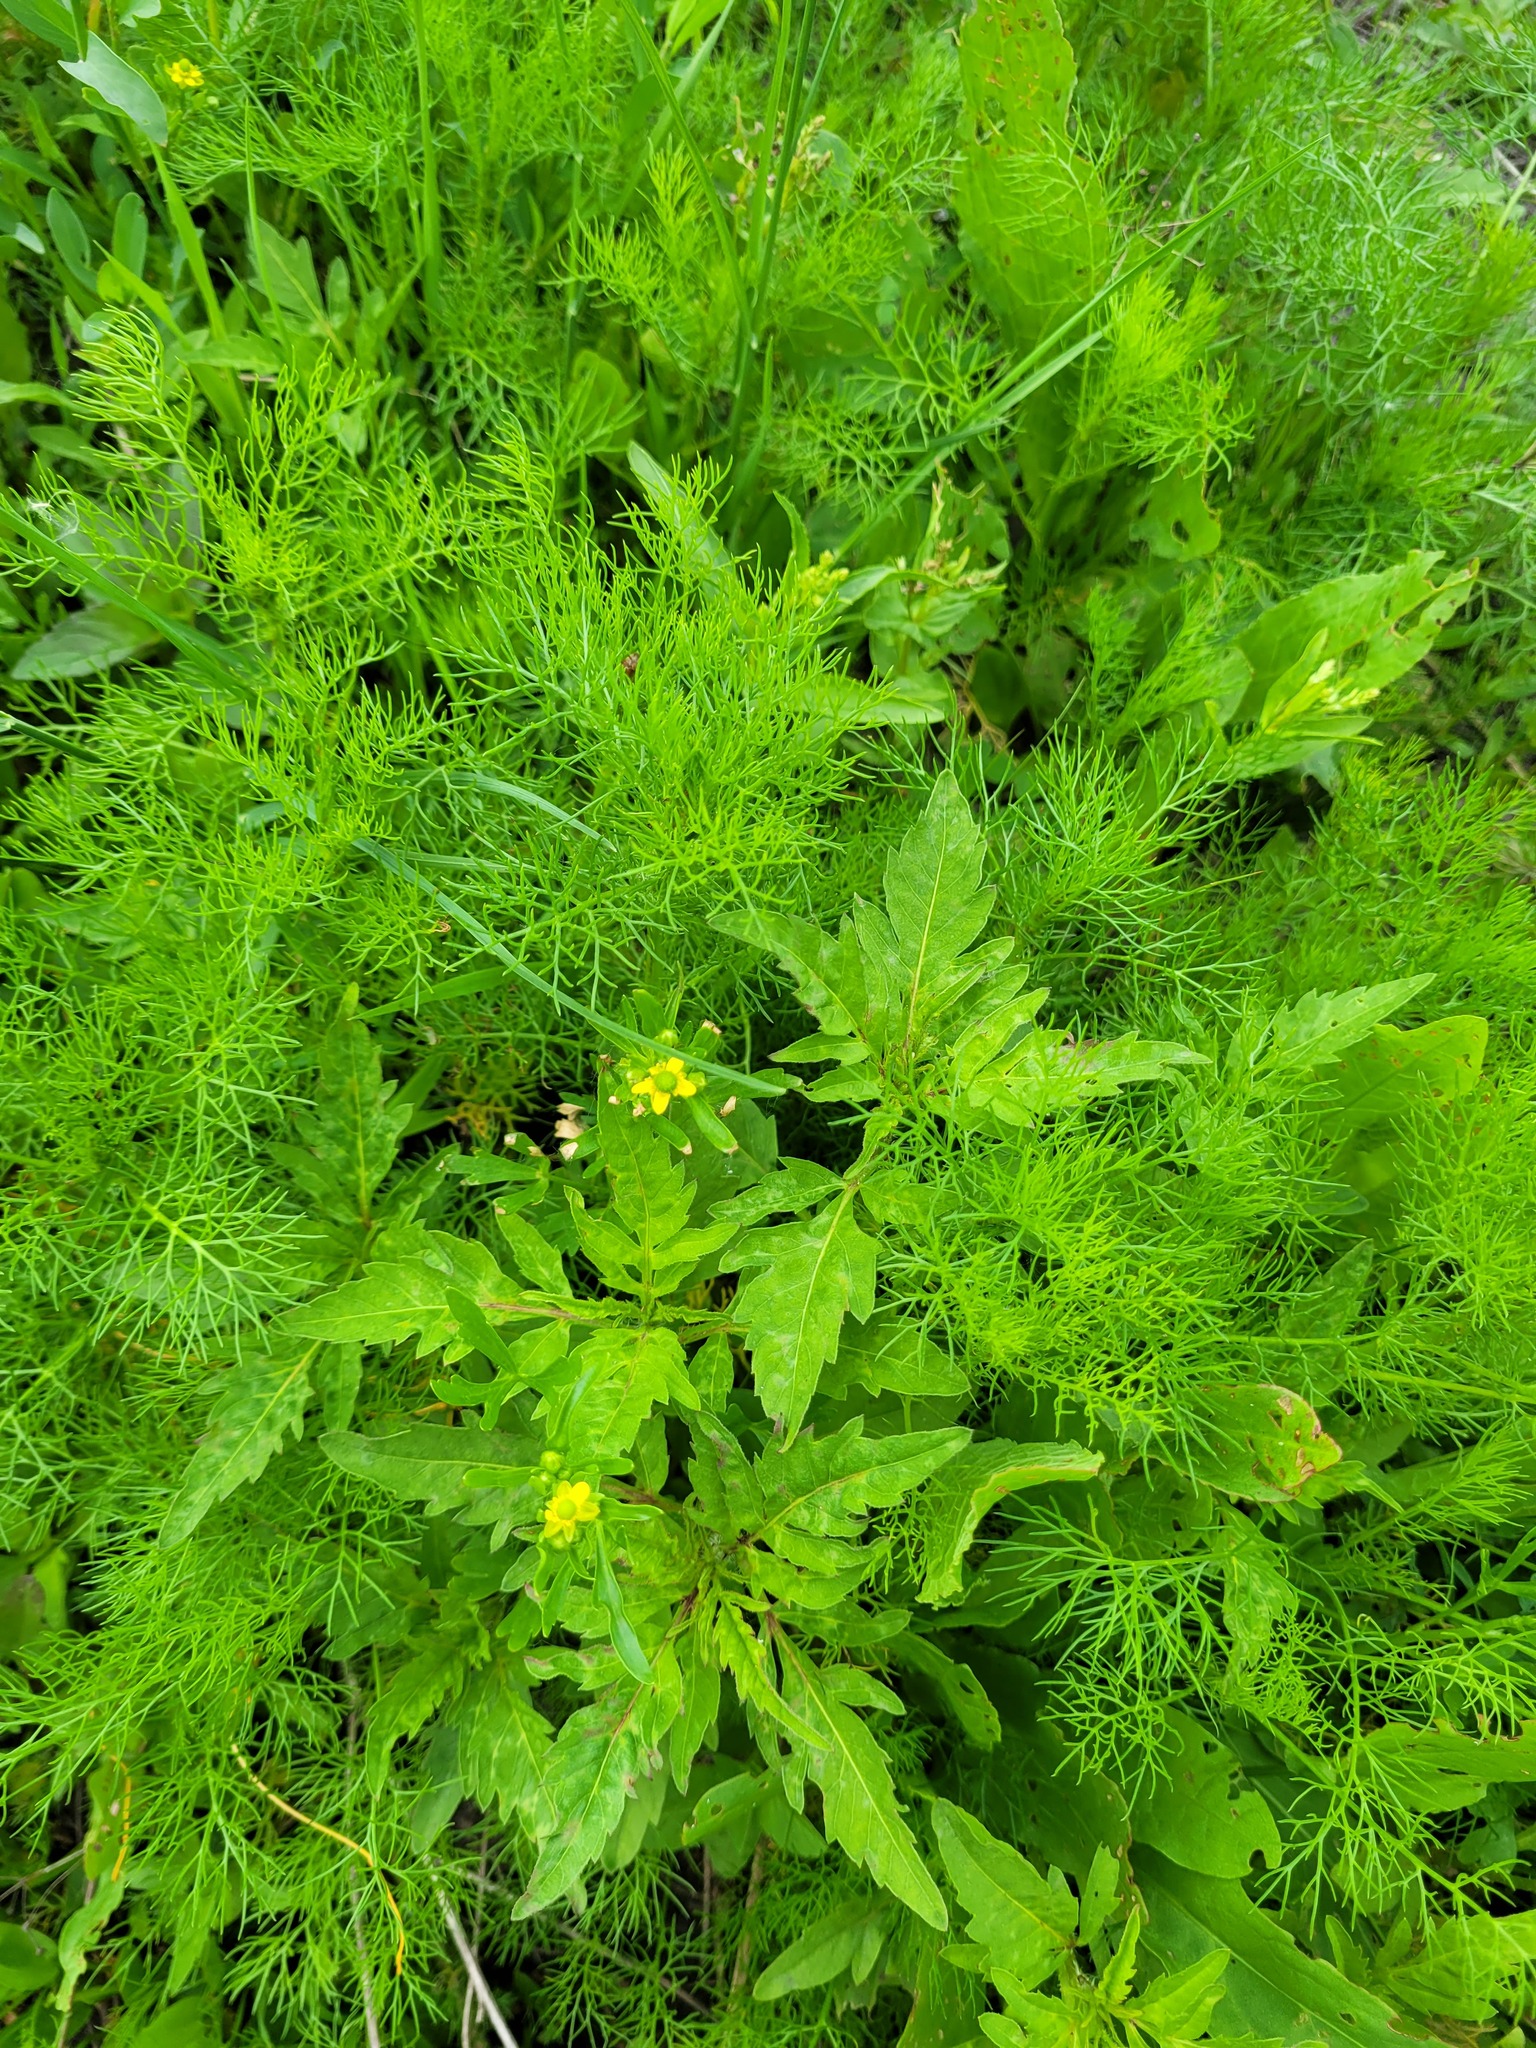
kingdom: Plantae
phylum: Tracheophyta
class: Magnoliopsida
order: Ranunculales
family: Ranunculaceae
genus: Ranunculus
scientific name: Ranunculus sceleratus
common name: Celery-leaved buttercup
